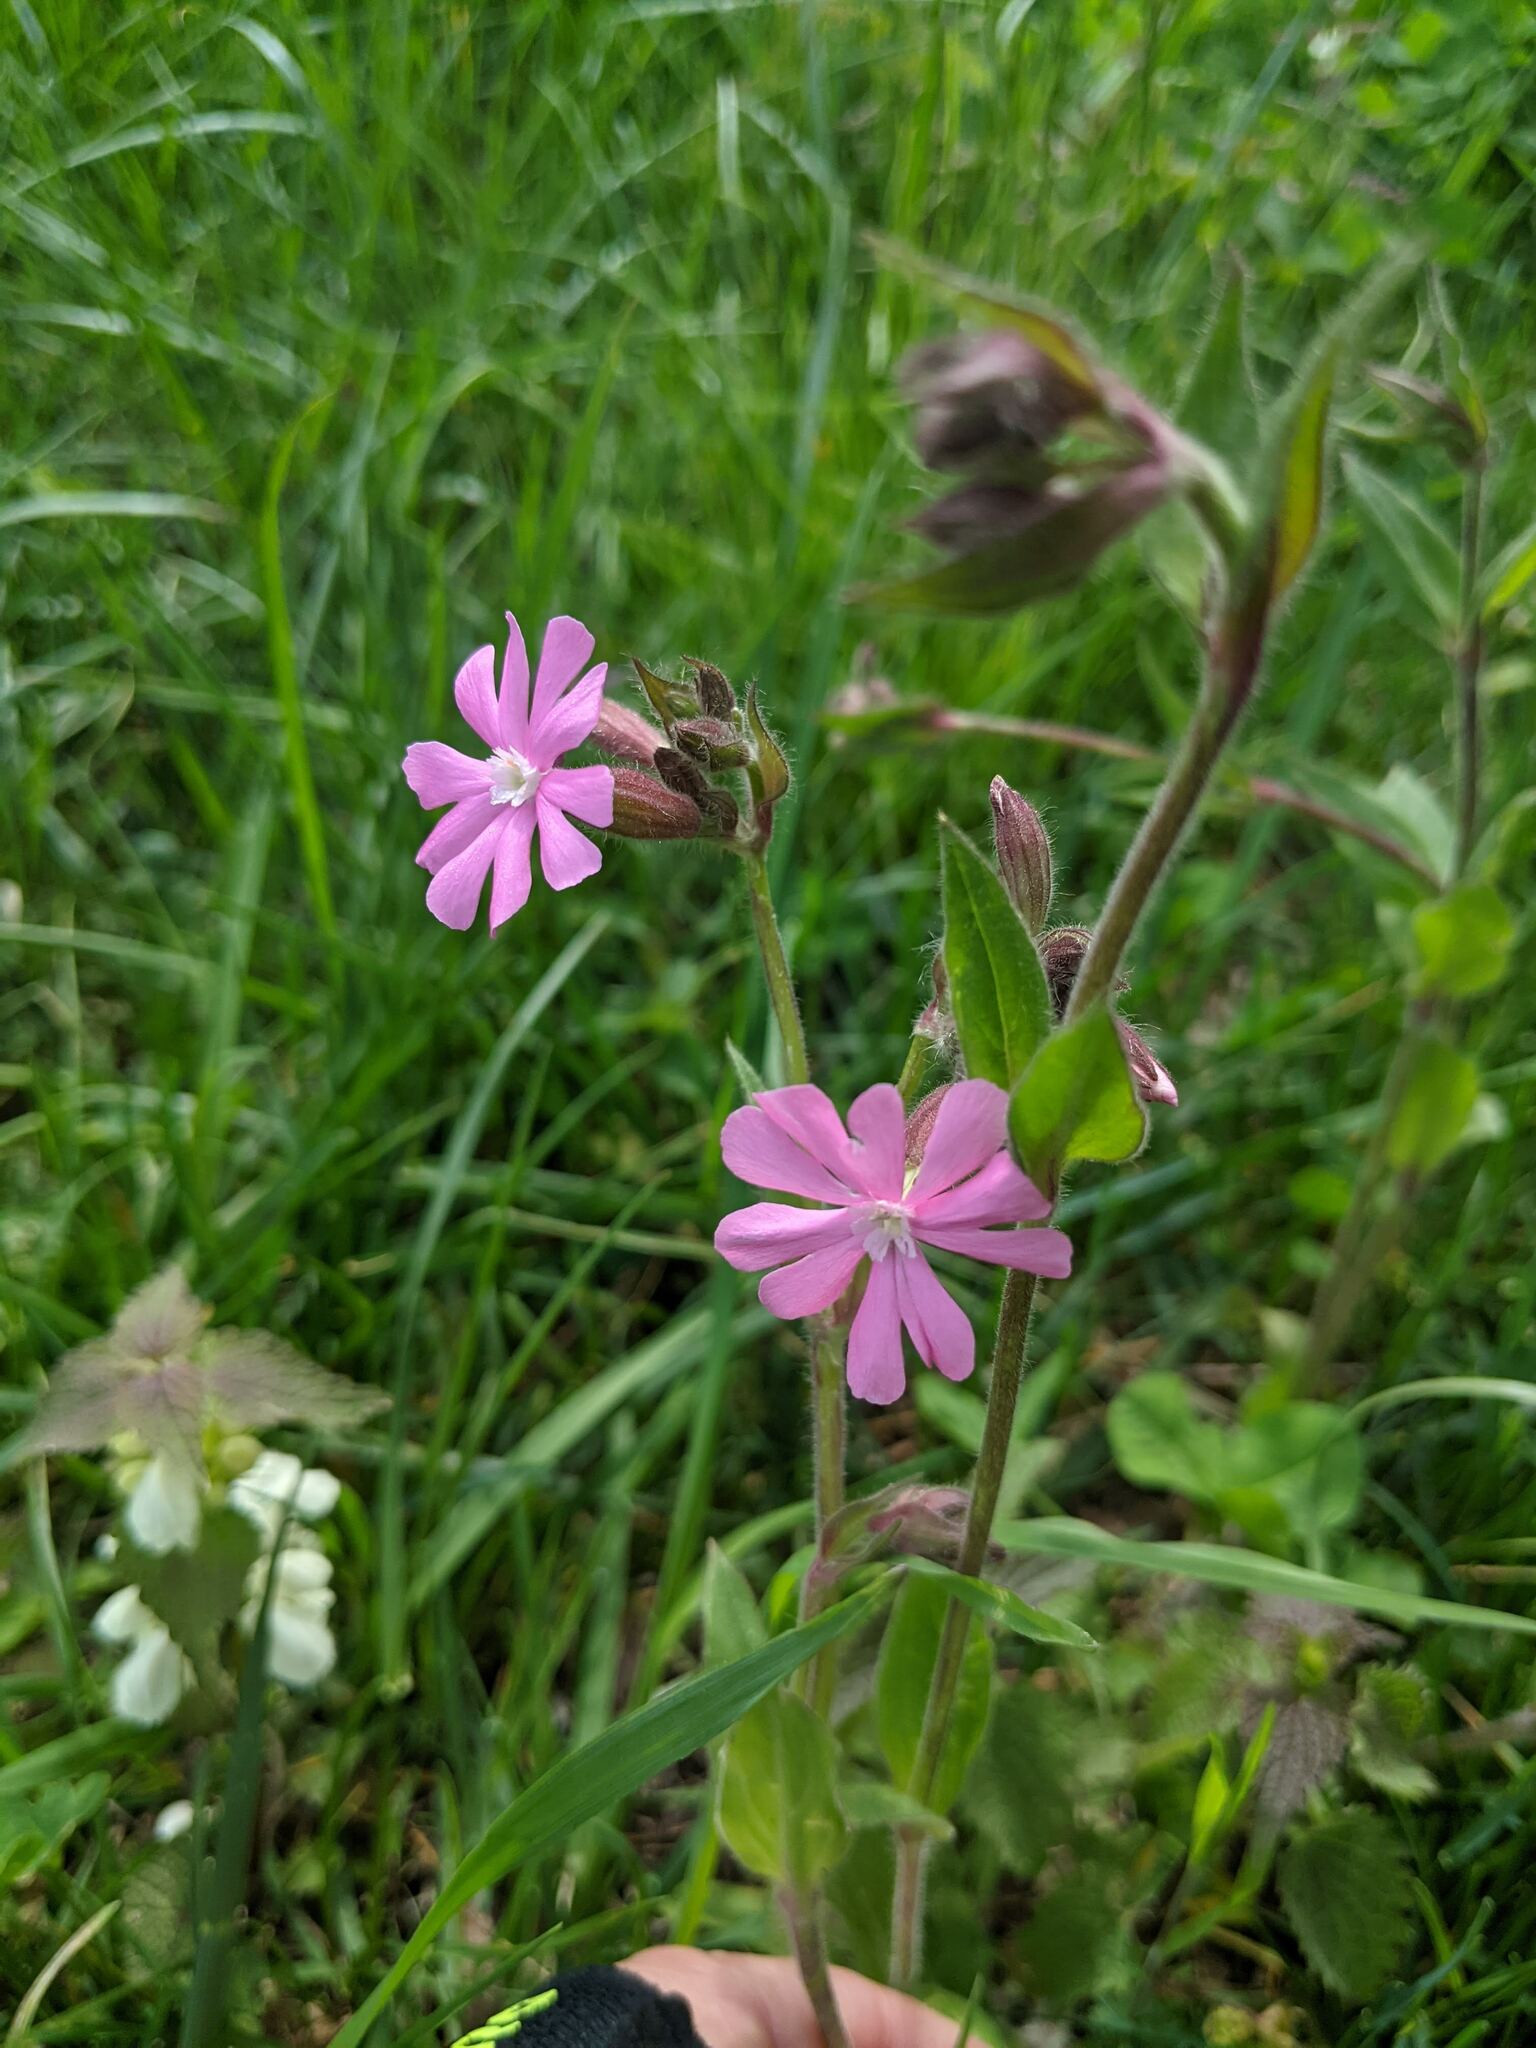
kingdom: Plantae
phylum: Tracheophyta
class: Magnoliopsida
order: Caryophyllales
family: Caryophyllaceae
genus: Silene
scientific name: Silene dioica
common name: Red campion
